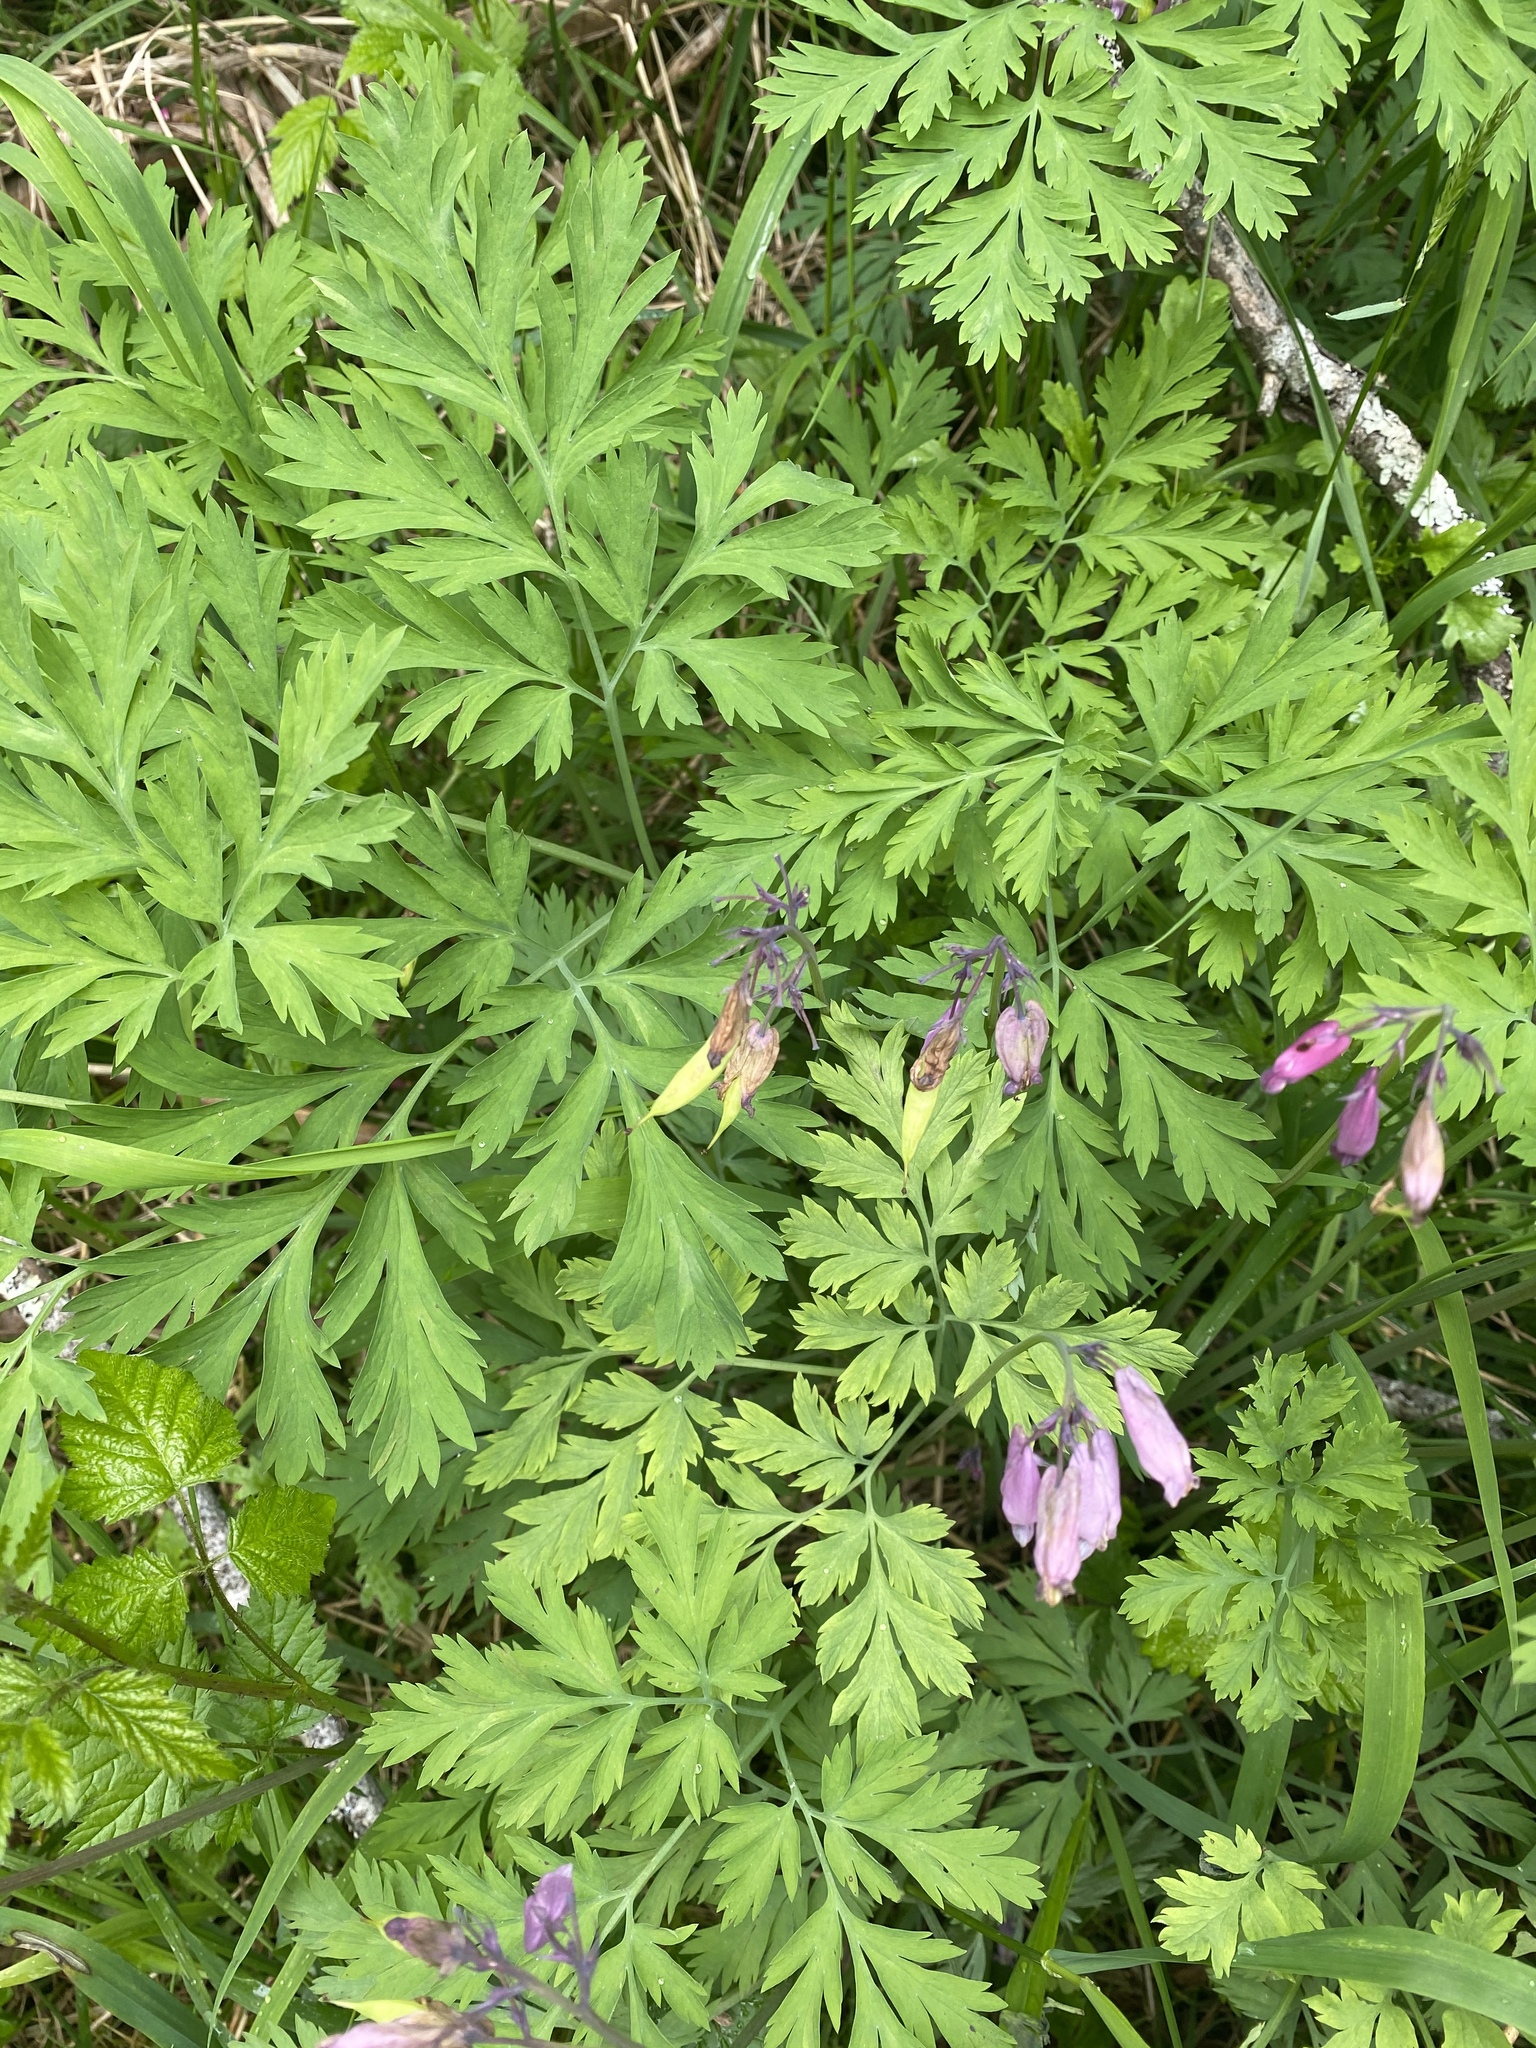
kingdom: Plantae
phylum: Tracheophyta
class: Magnoliopsida
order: Ranunculales
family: Papaveraceae
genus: Dicentra
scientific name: Dicentra formosa
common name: Bleeding-heart
